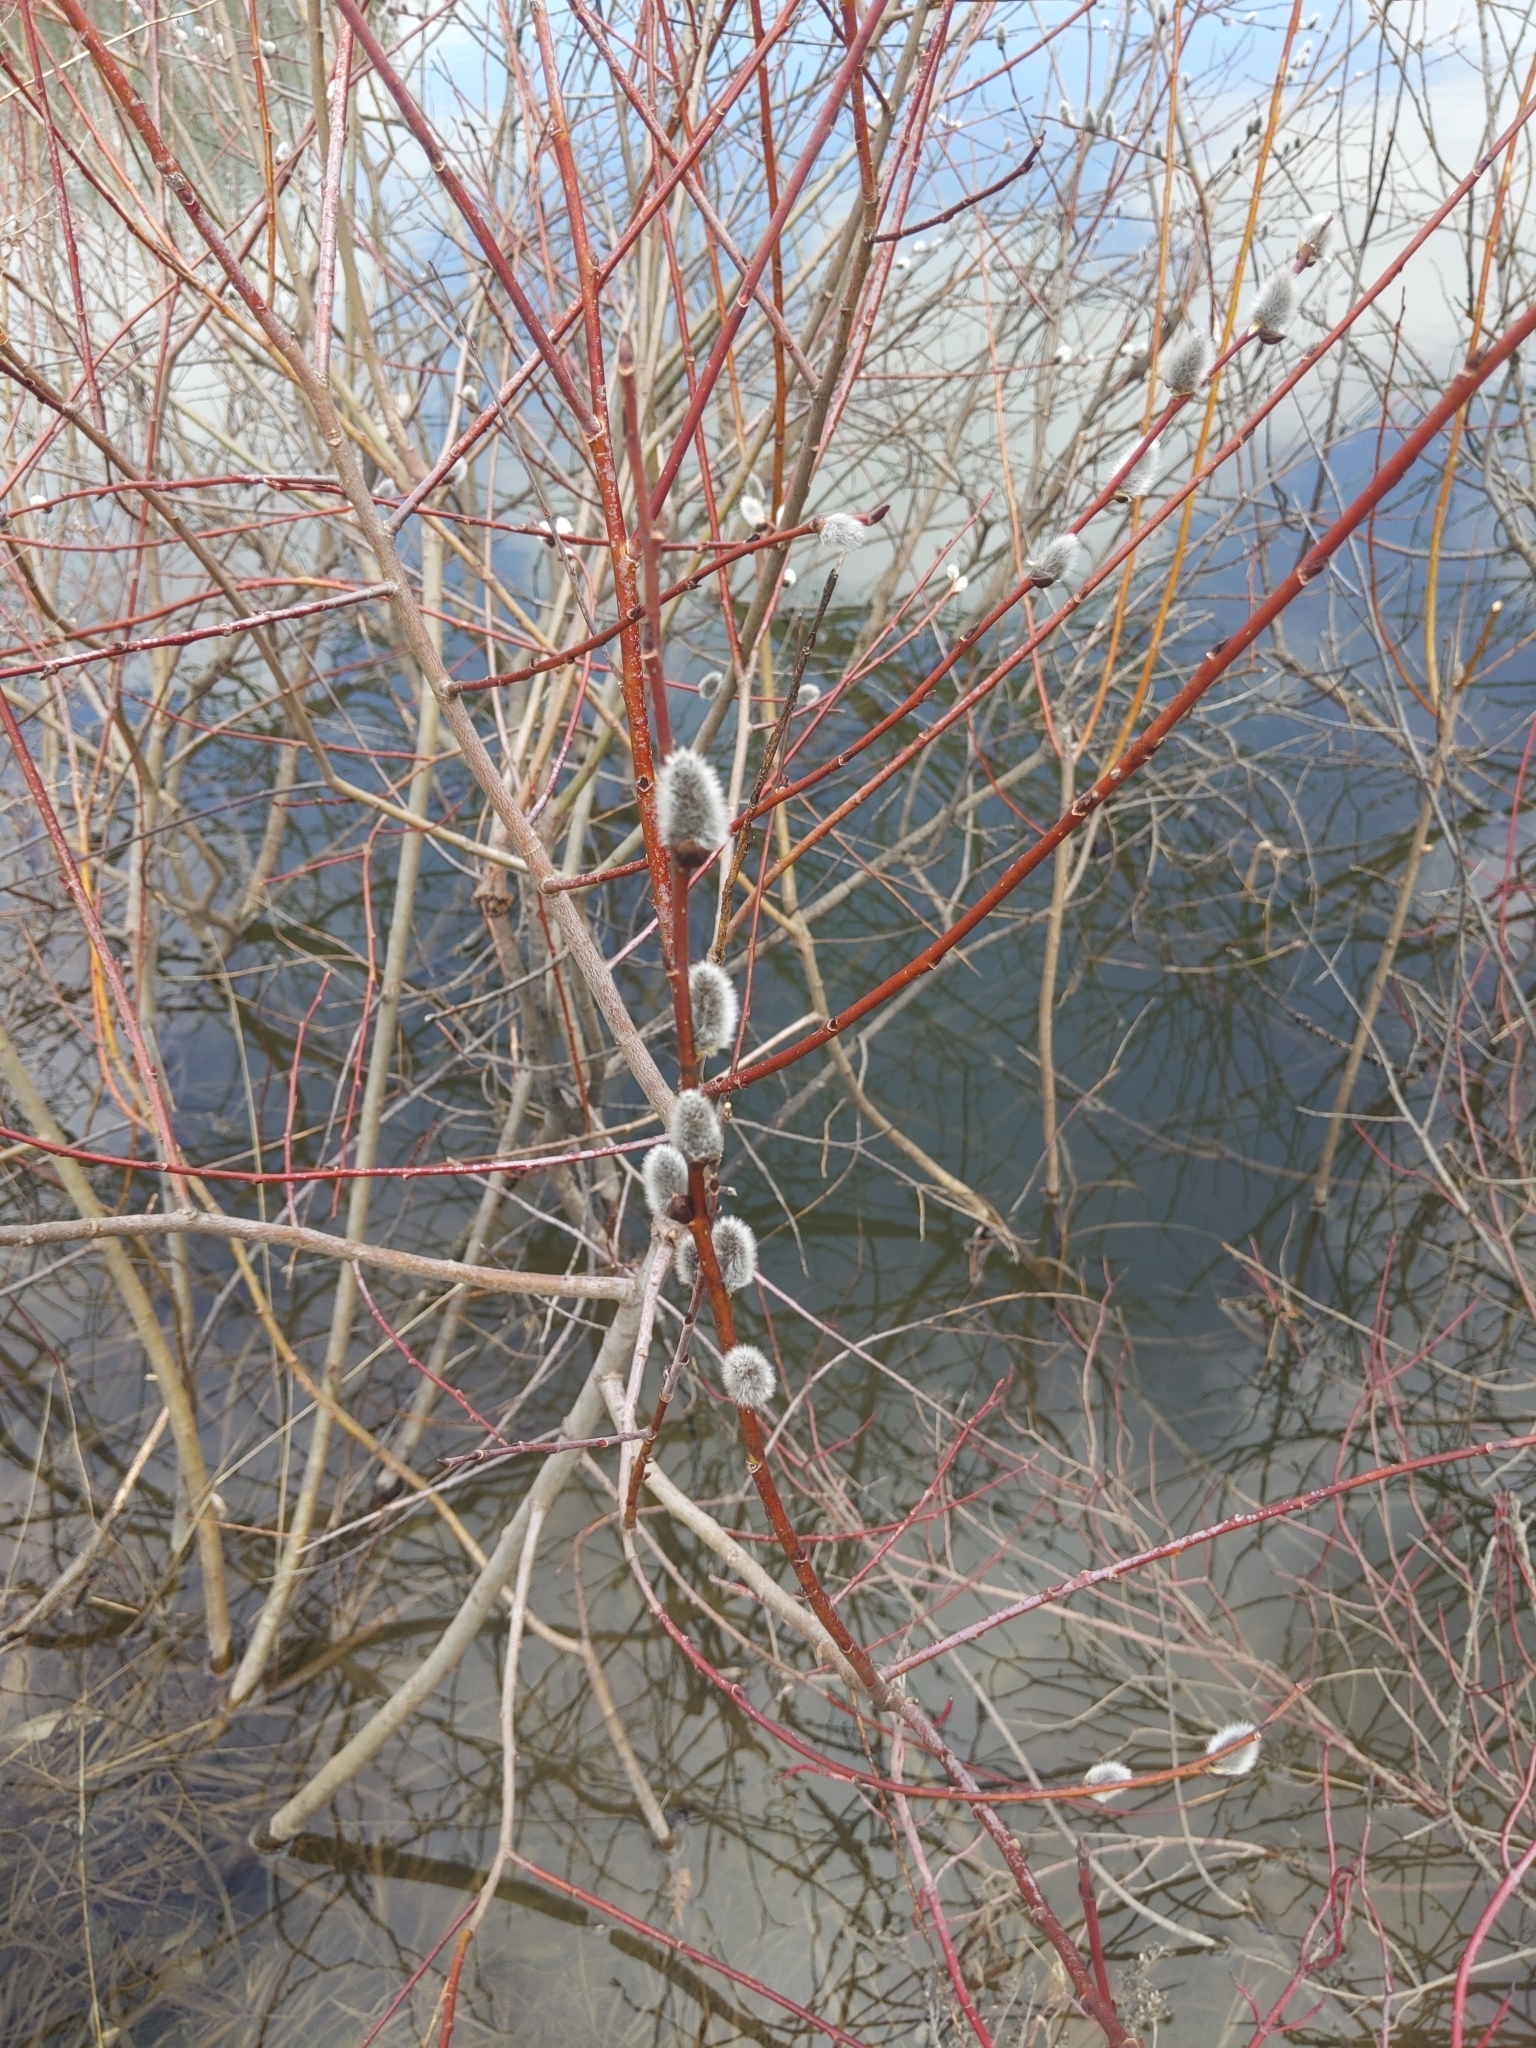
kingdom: Plantae
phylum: Tracheophyta
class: Magnoliopsida
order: Malpighiales
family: Salicaceae
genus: Salix
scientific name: Salix discolor
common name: Glaucous willow
